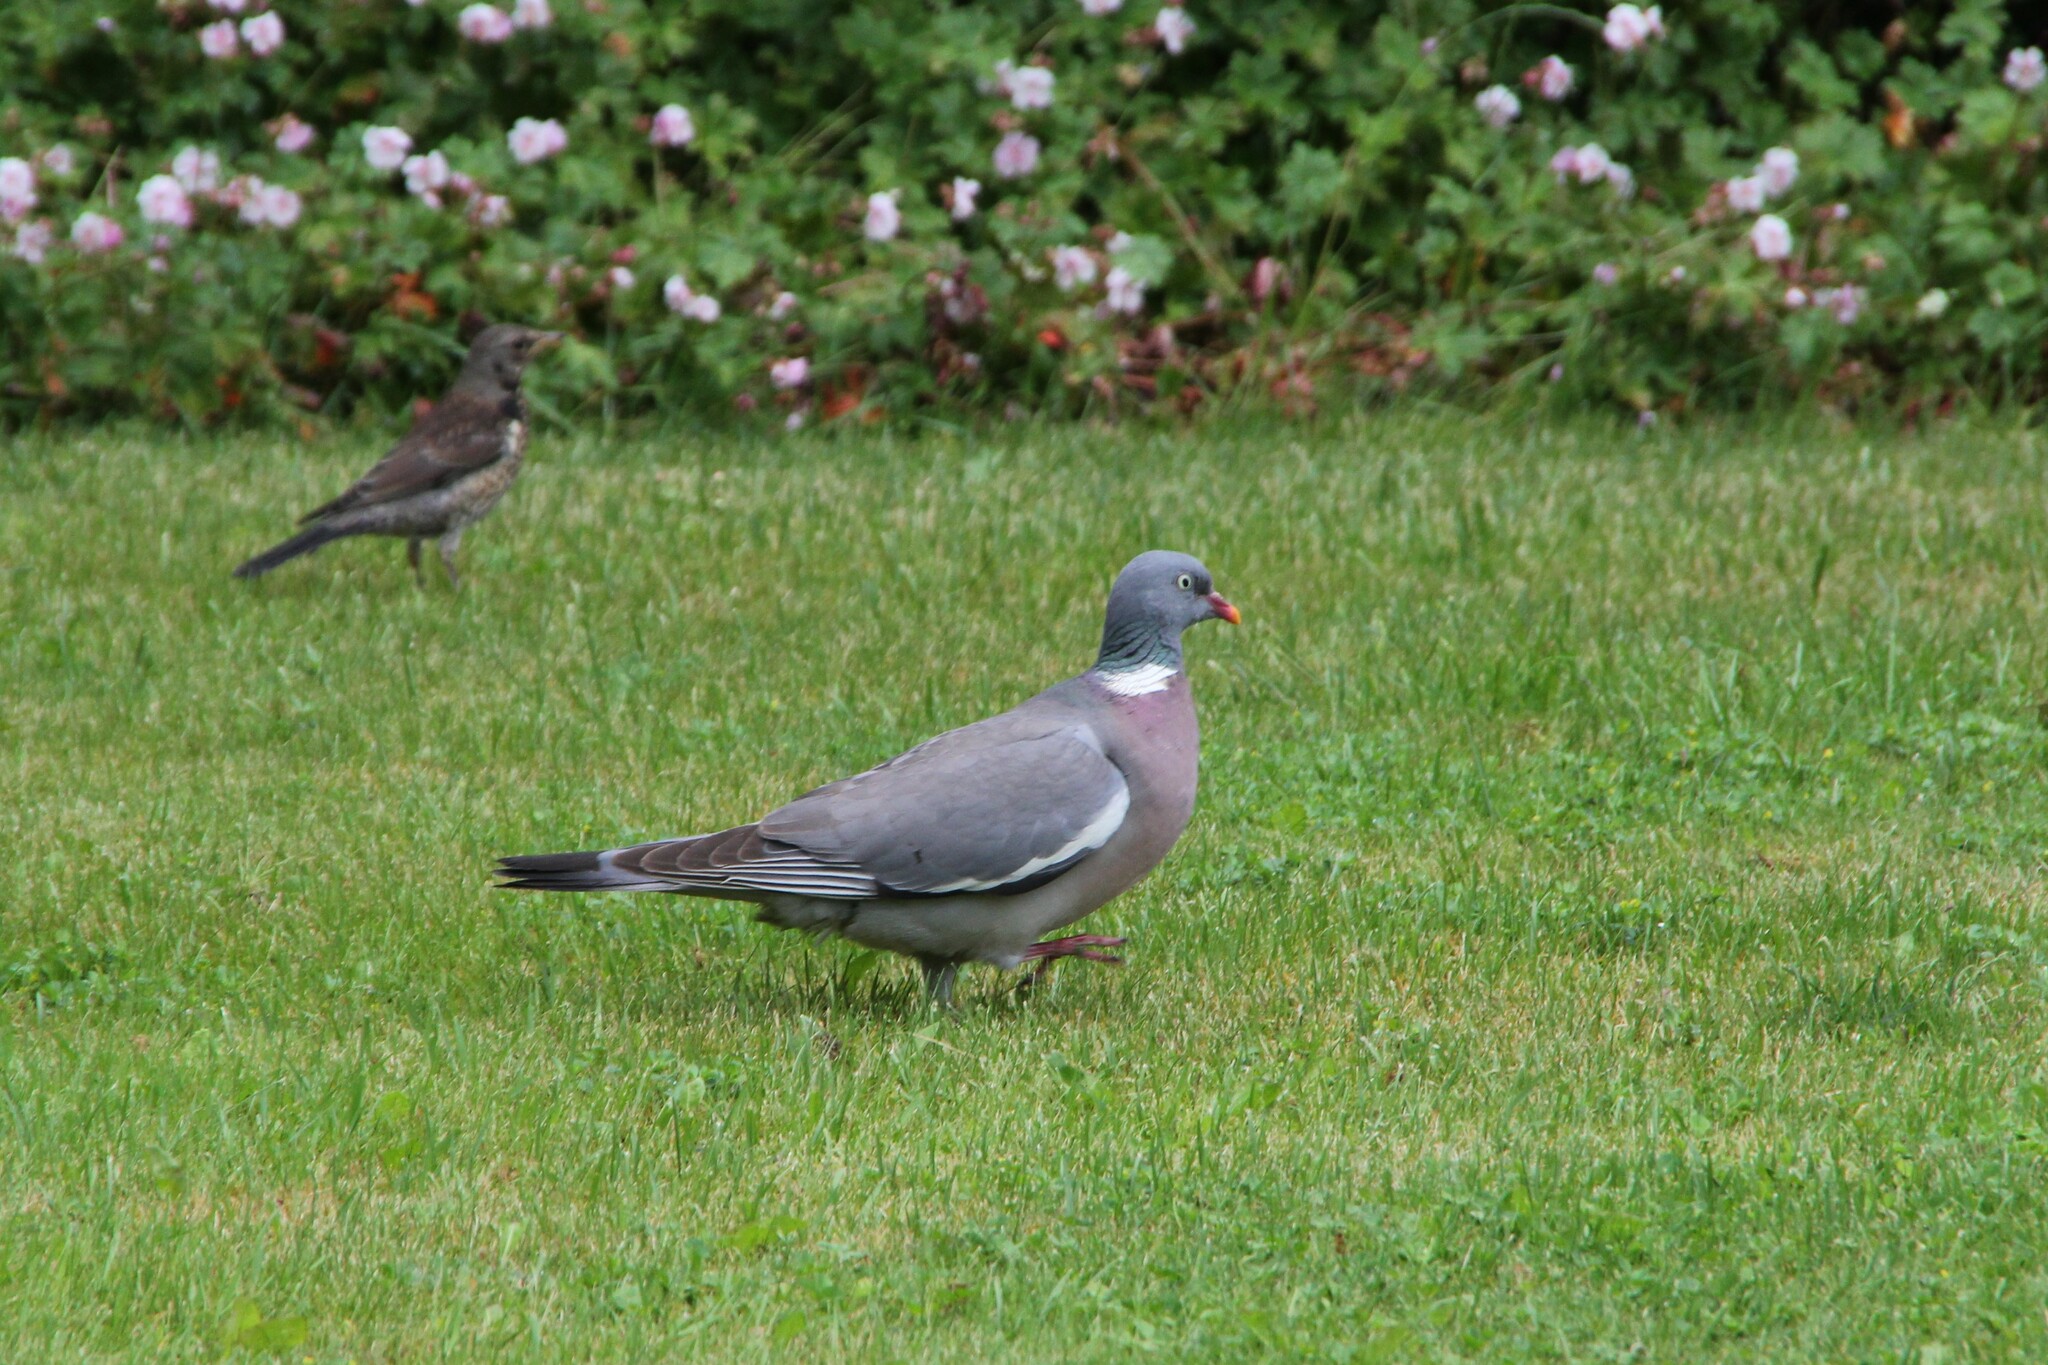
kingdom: Animalia
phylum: Chordata
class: Aves
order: Columbiformes
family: Columbidae
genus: Columba
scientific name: Columba palumbus
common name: Common wood pigeon
